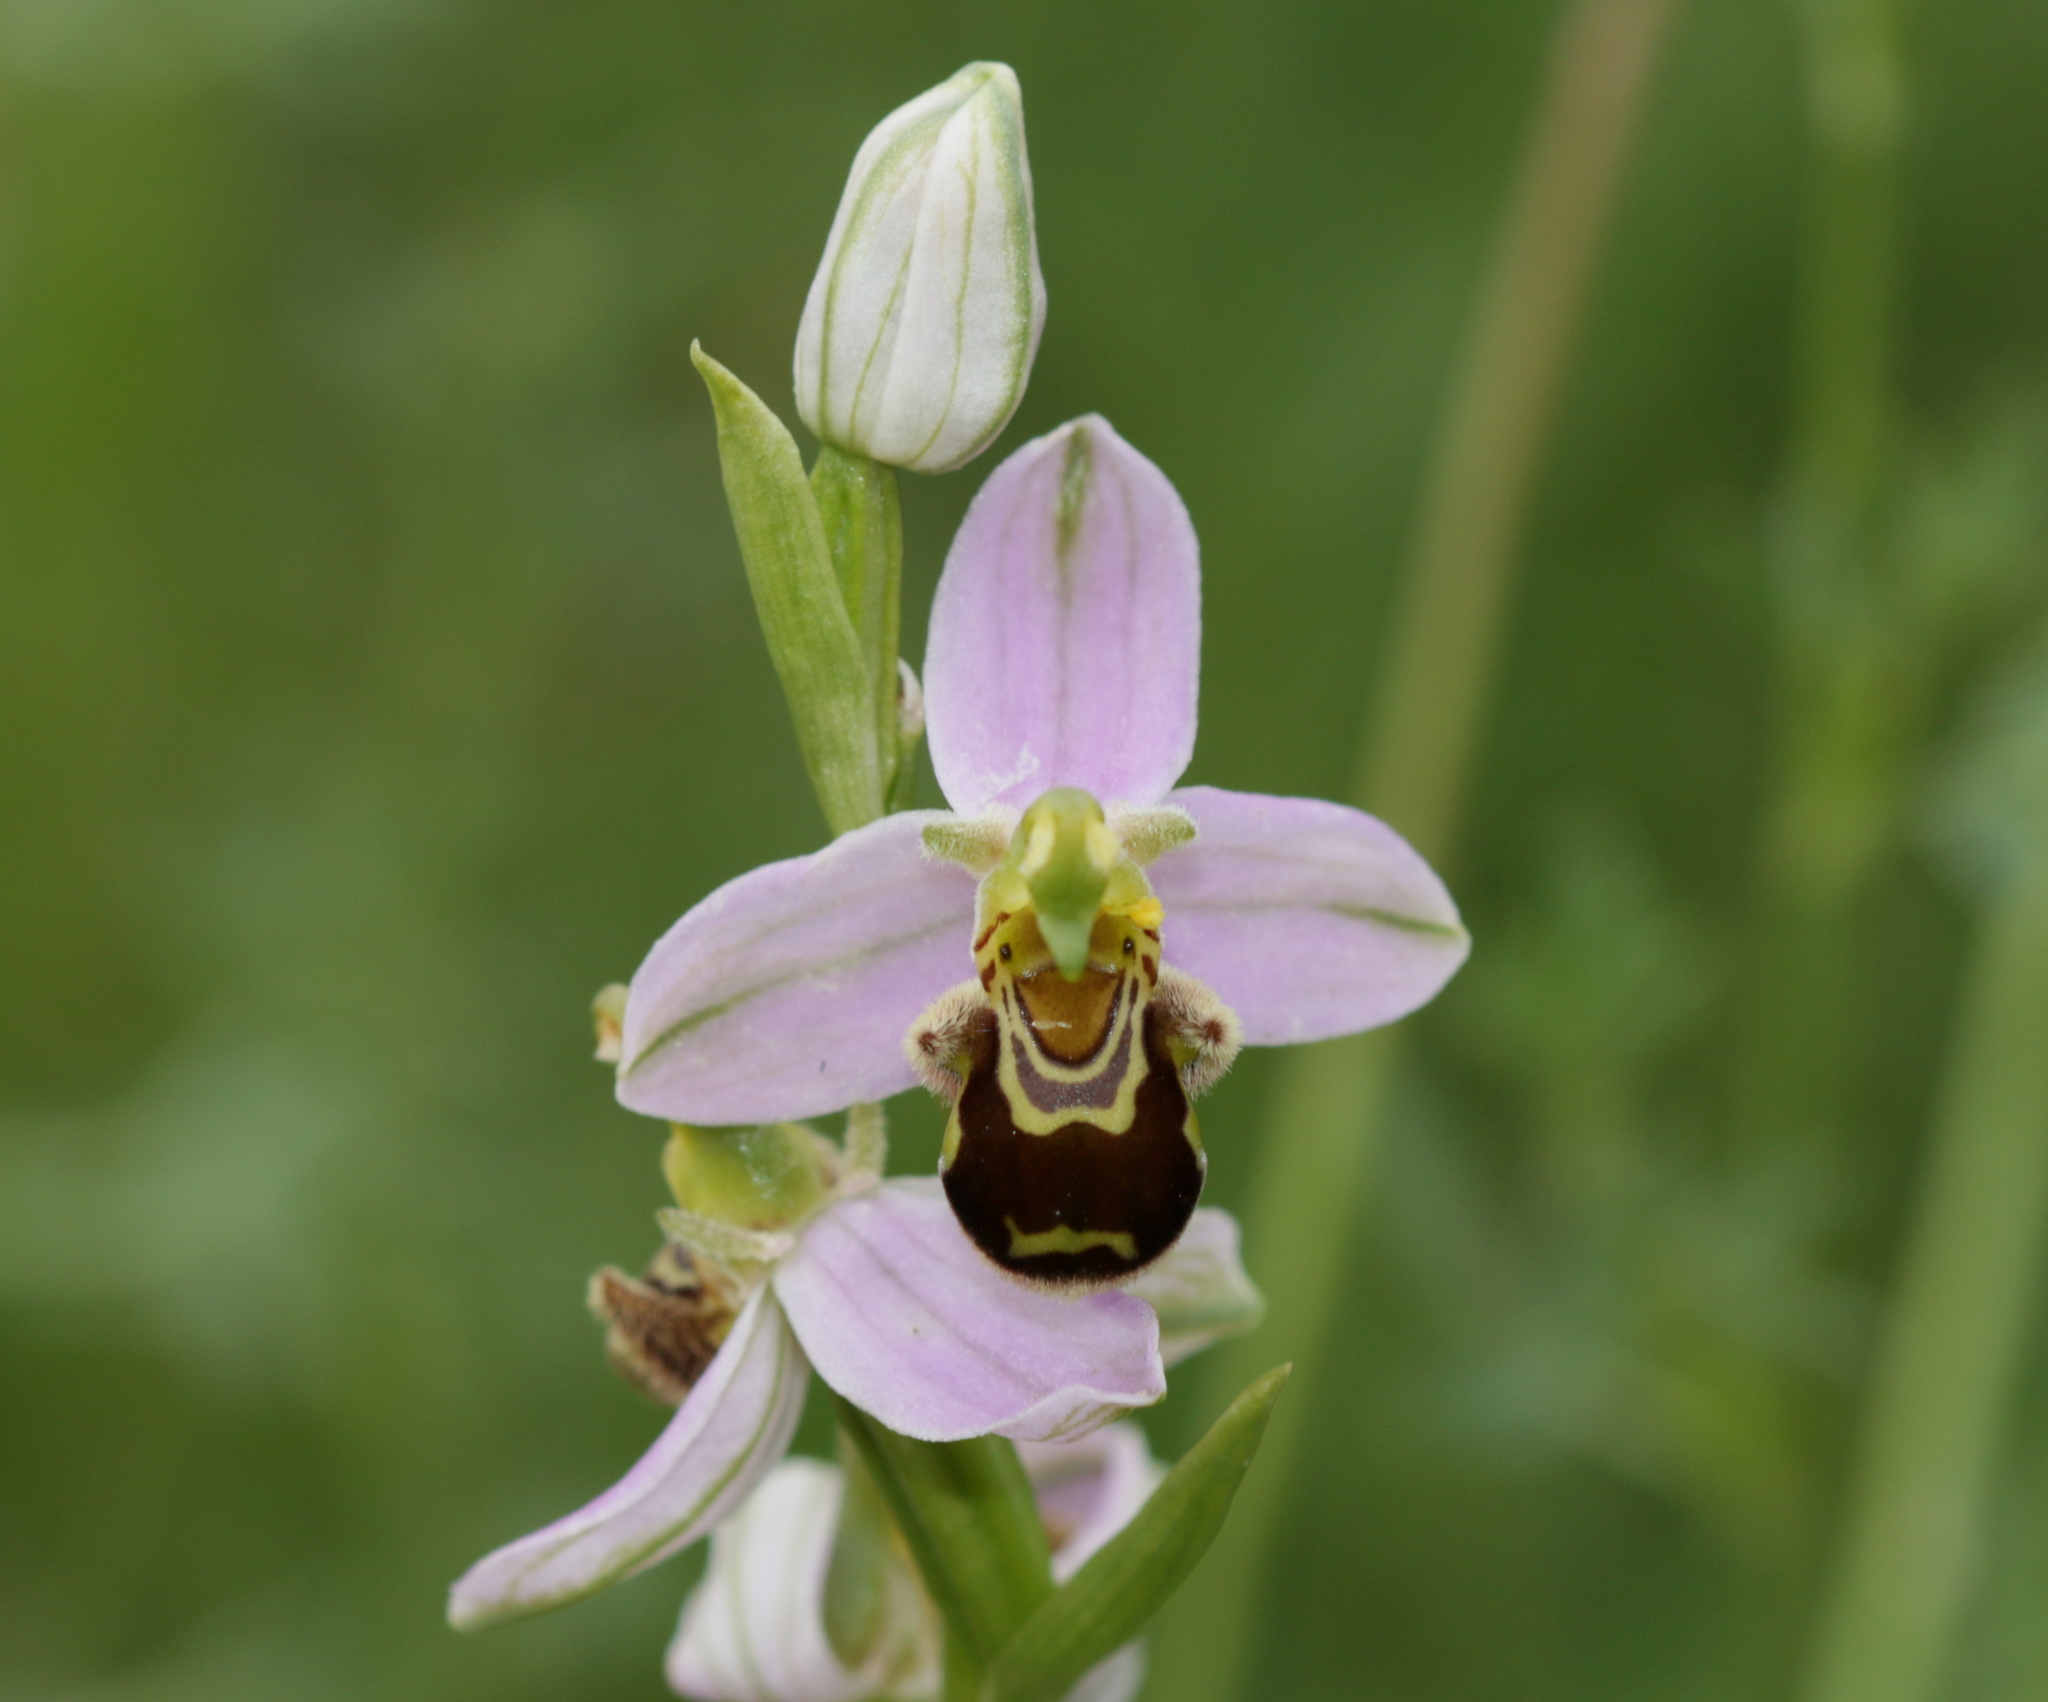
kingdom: Plantae
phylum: Tracheophyta
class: Liliopsida
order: Asparagales
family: Orchidaceae
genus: Ophrys
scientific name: Ophrys apifera
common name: Bee orchid
